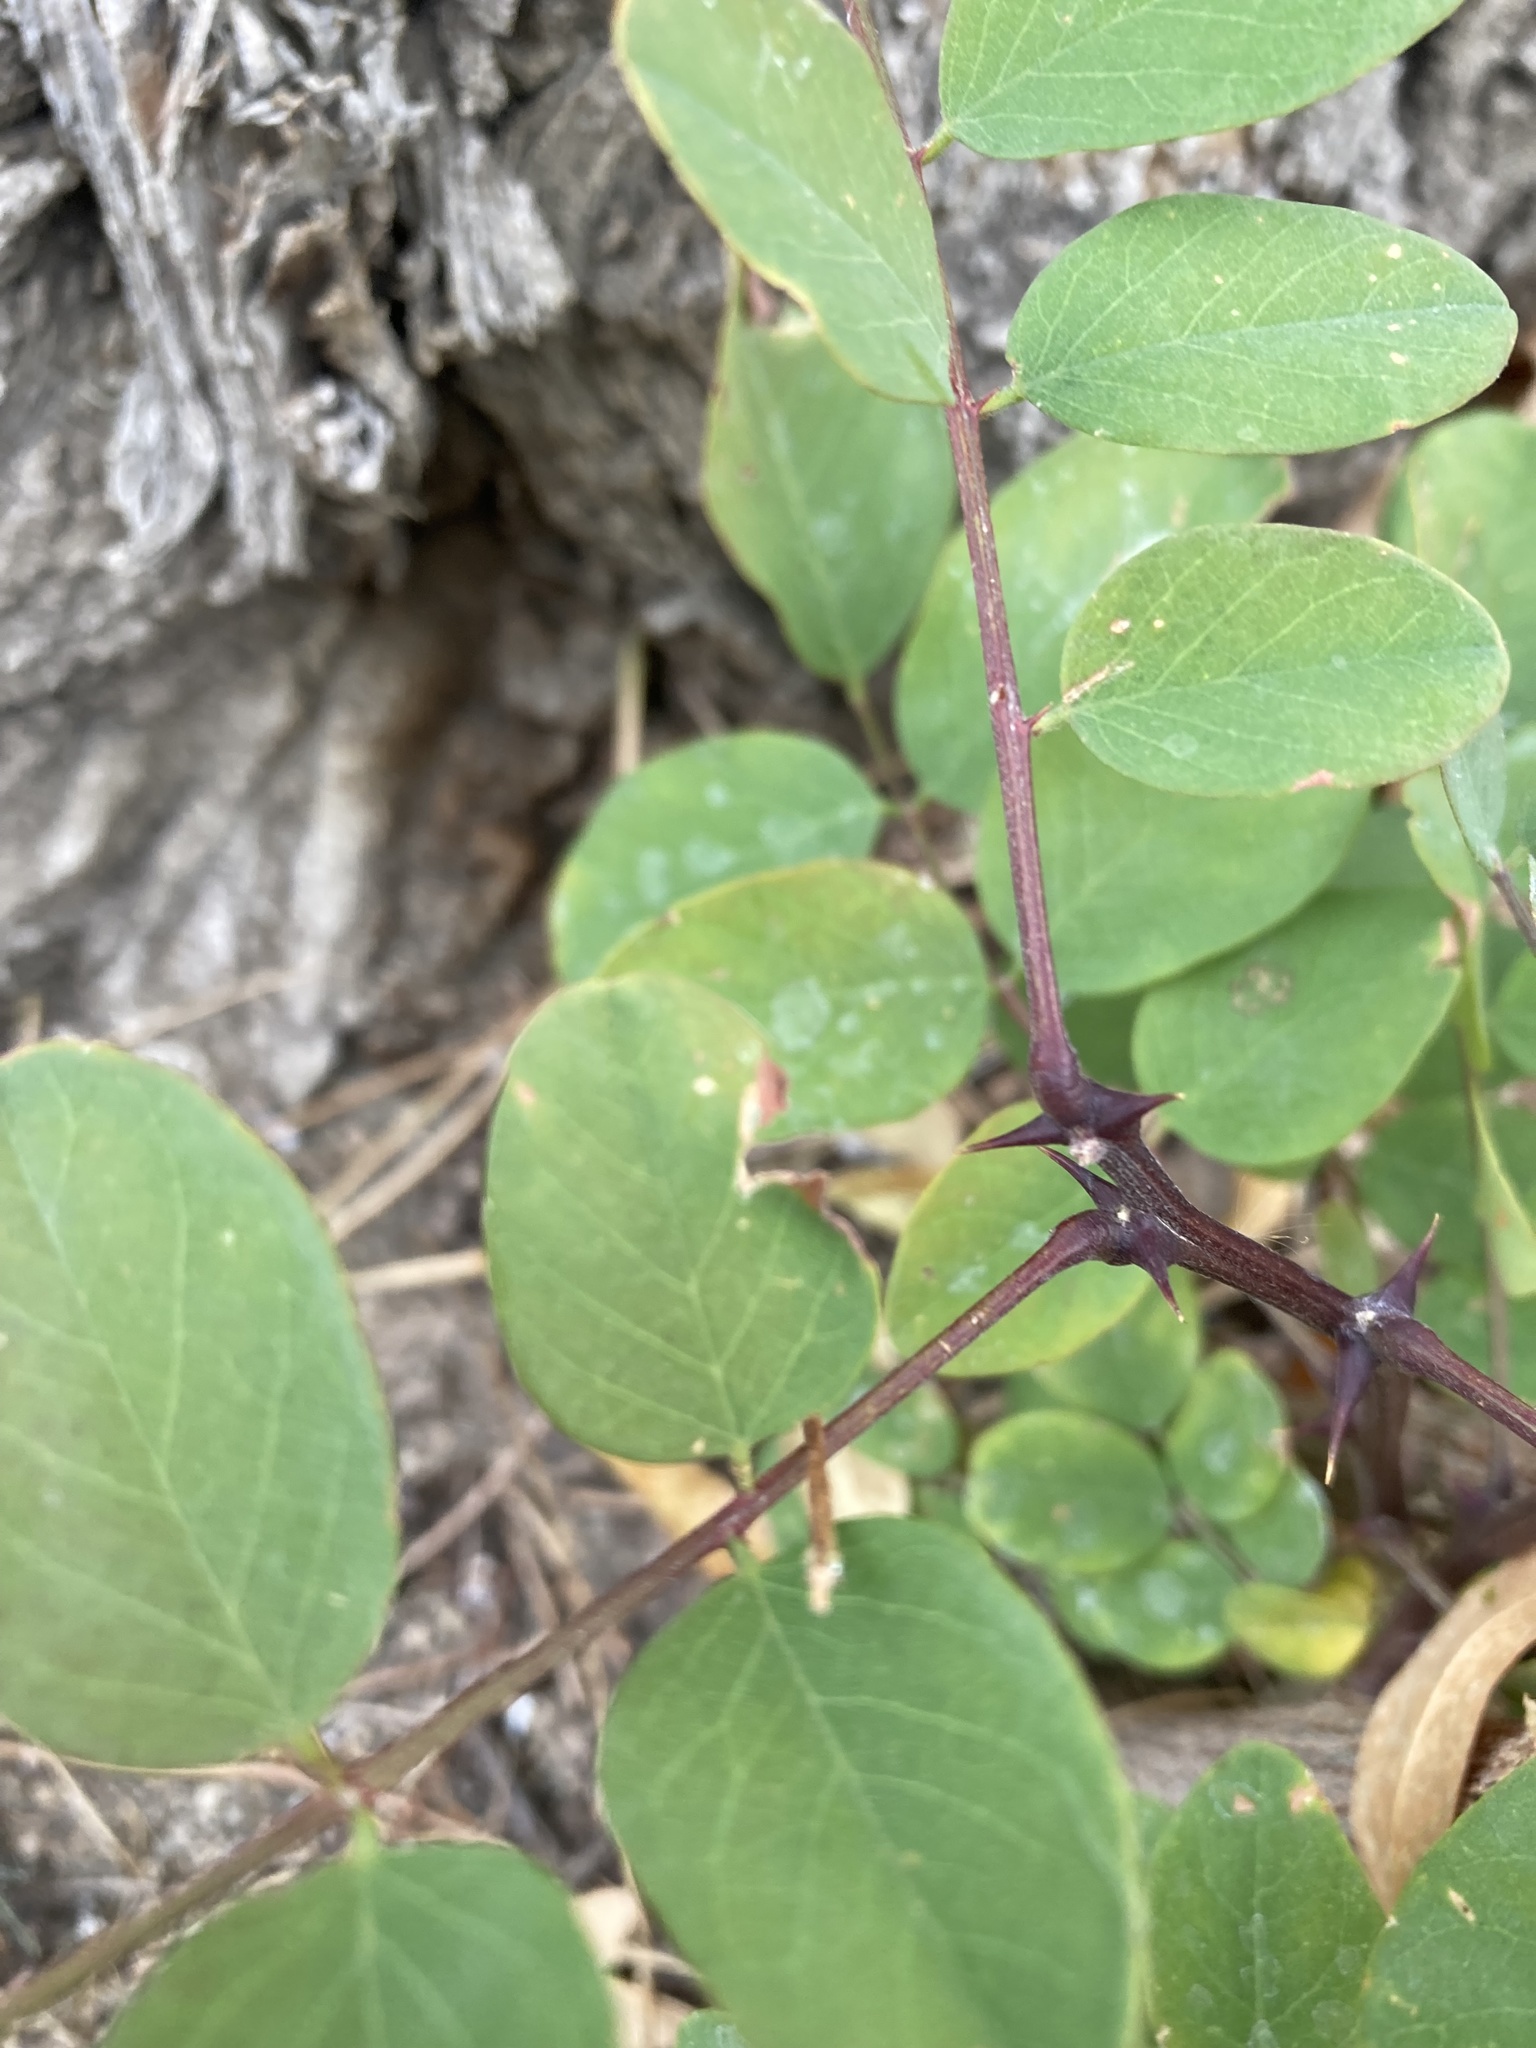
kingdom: Plantae
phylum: Tracheophyta
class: Magnoliopsida
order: Fabales
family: Fabaceae
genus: Robinia
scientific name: Robinia pseudoacacia
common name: Black locust
